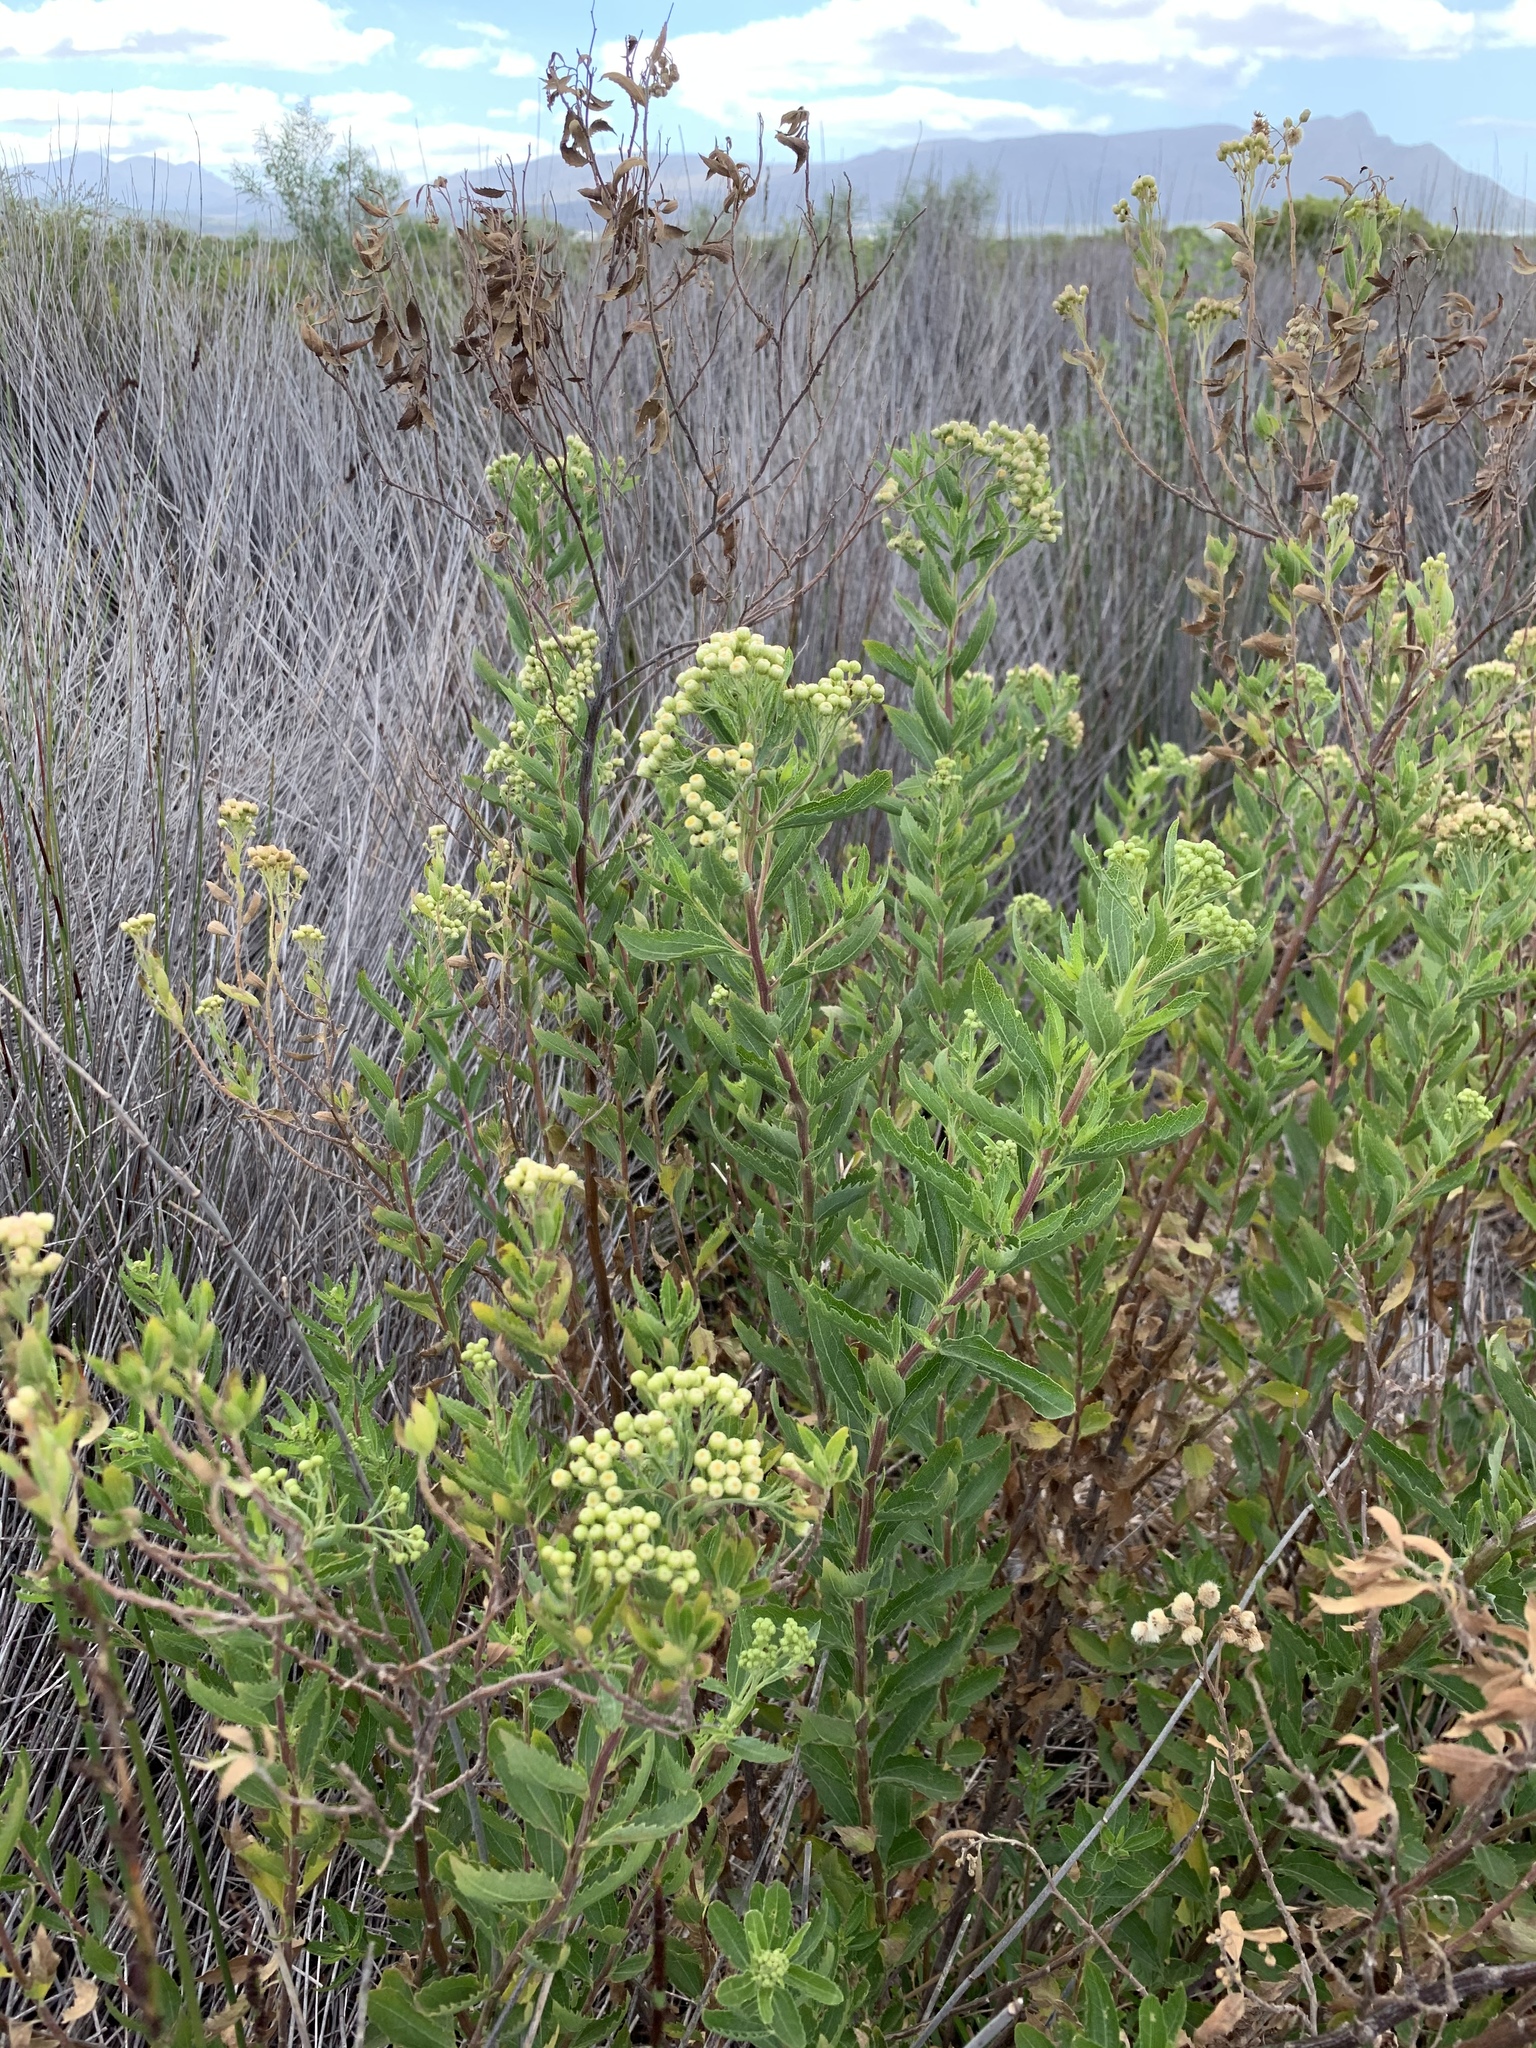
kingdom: Plantae
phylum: Tracheophyta
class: Magnoliopsida
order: Asterales
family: Asteraceae
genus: Nidorella
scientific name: Nidorella ivifolia
